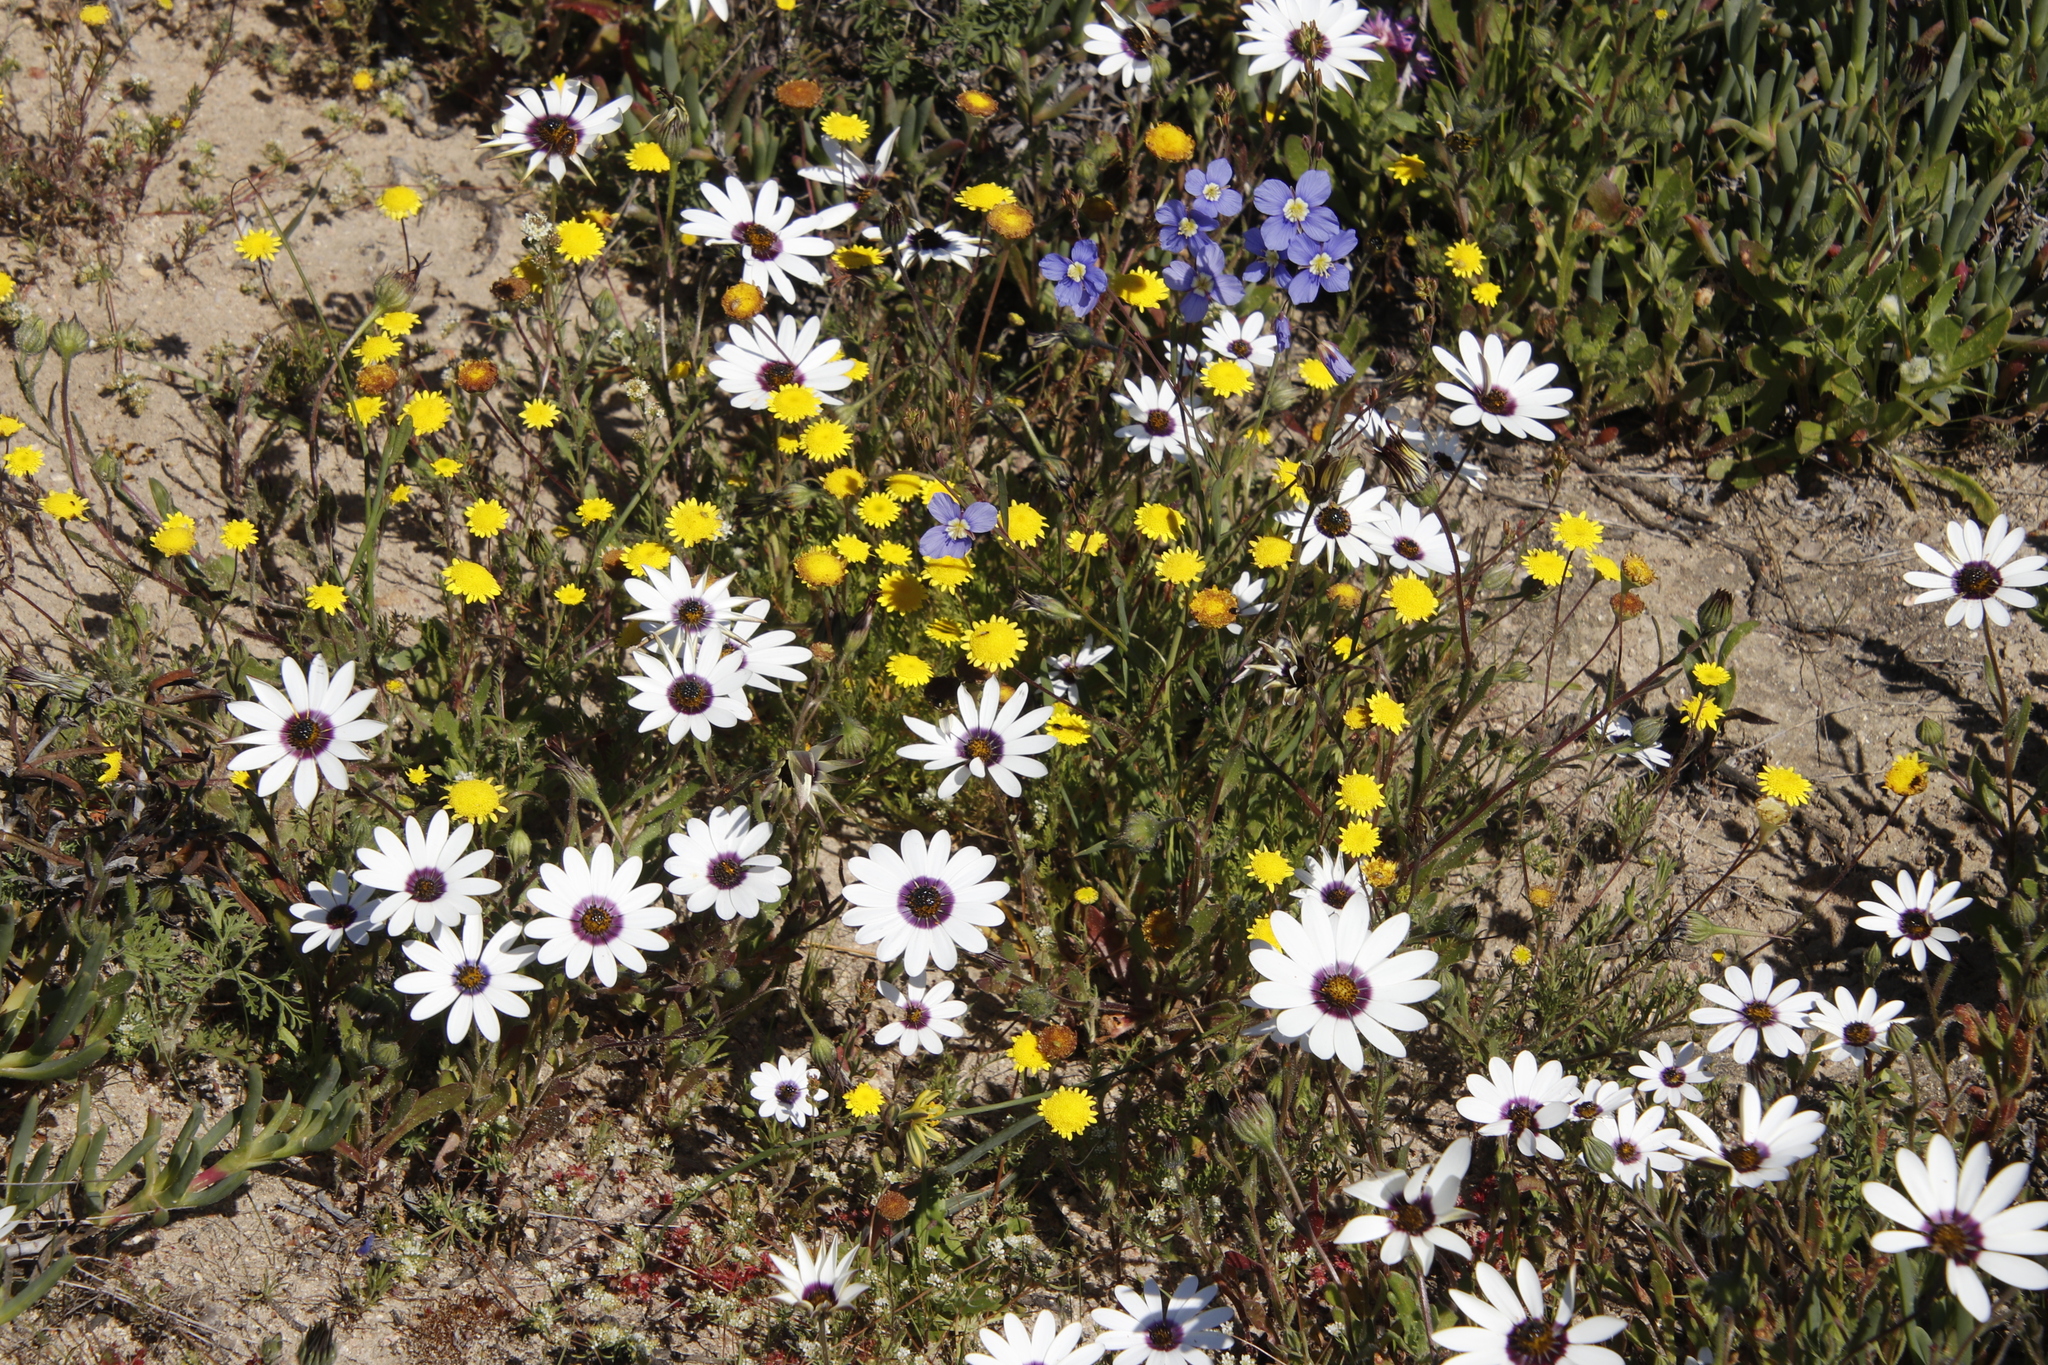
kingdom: Plantae
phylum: Tracheophyta
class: Magnoliopsida
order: Asterales
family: Asteraceae
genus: Cotula
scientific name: Cotula pruinosa
